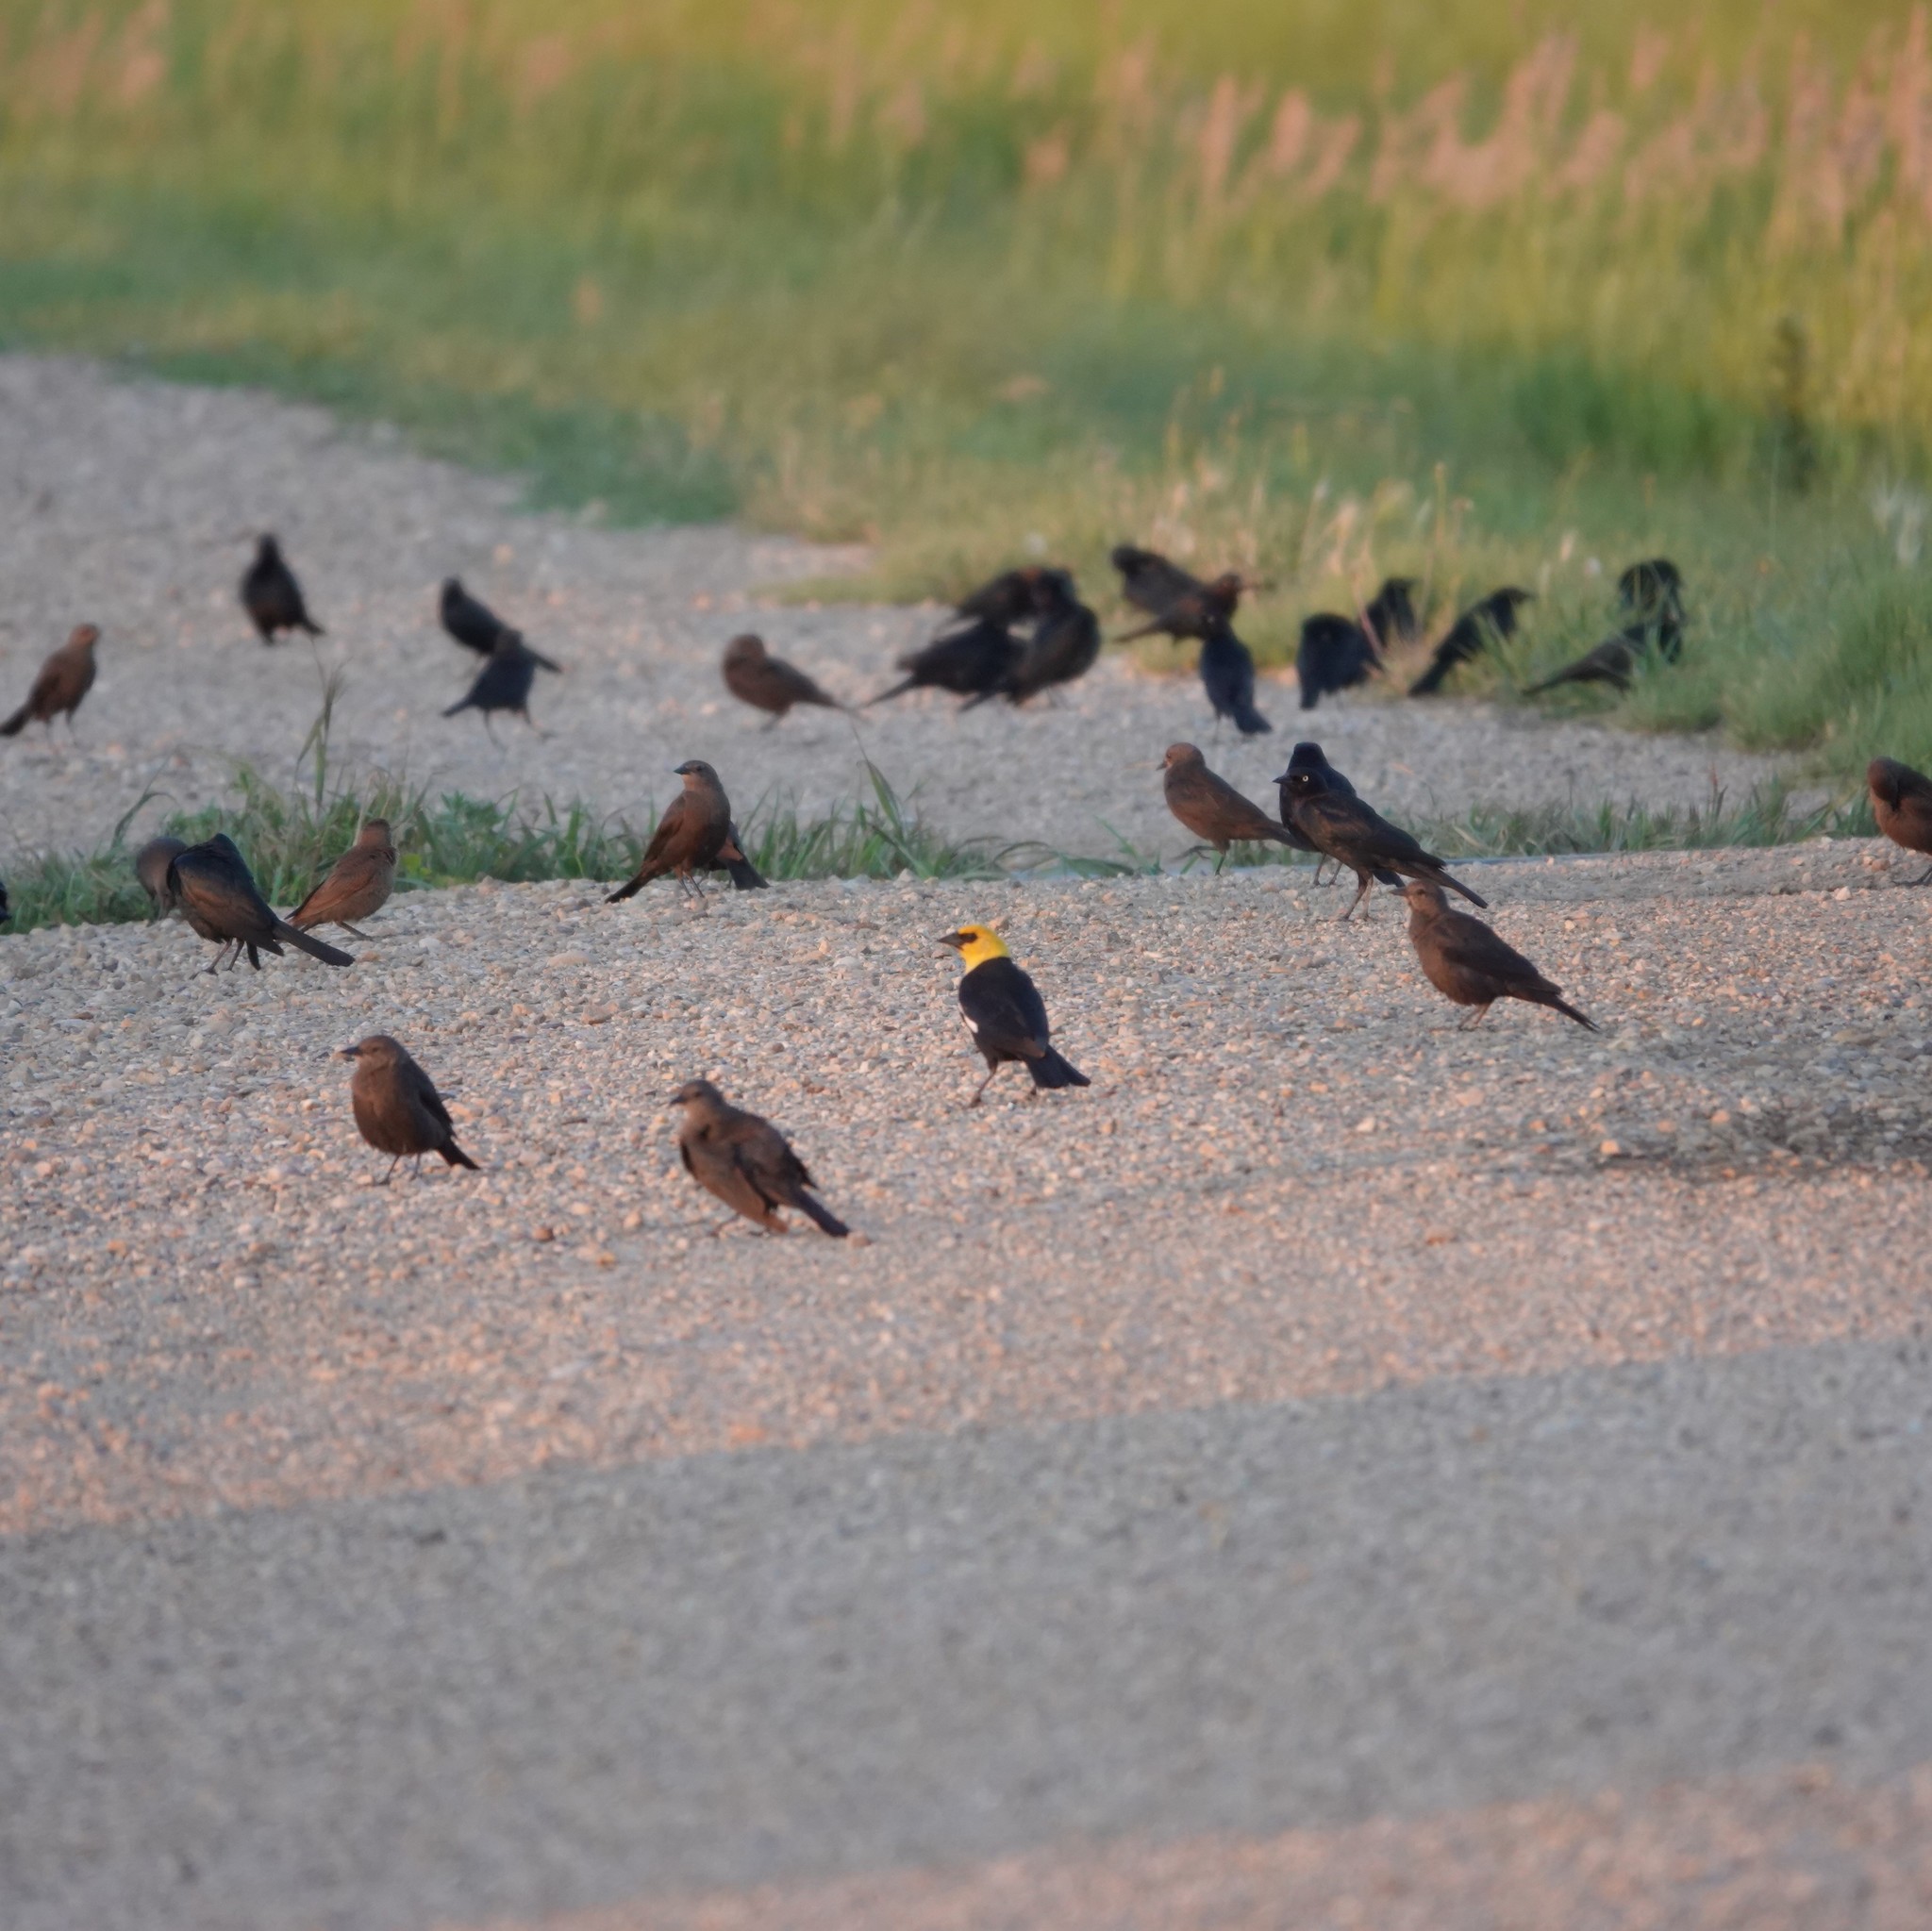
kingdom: Animalia
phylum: Chordata
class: Aves
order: Passeriformes
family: Icteridae
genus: Xanthocephalus
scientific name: Xanthocephalus xanthocephalus
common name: Yellow-headed blackbird
